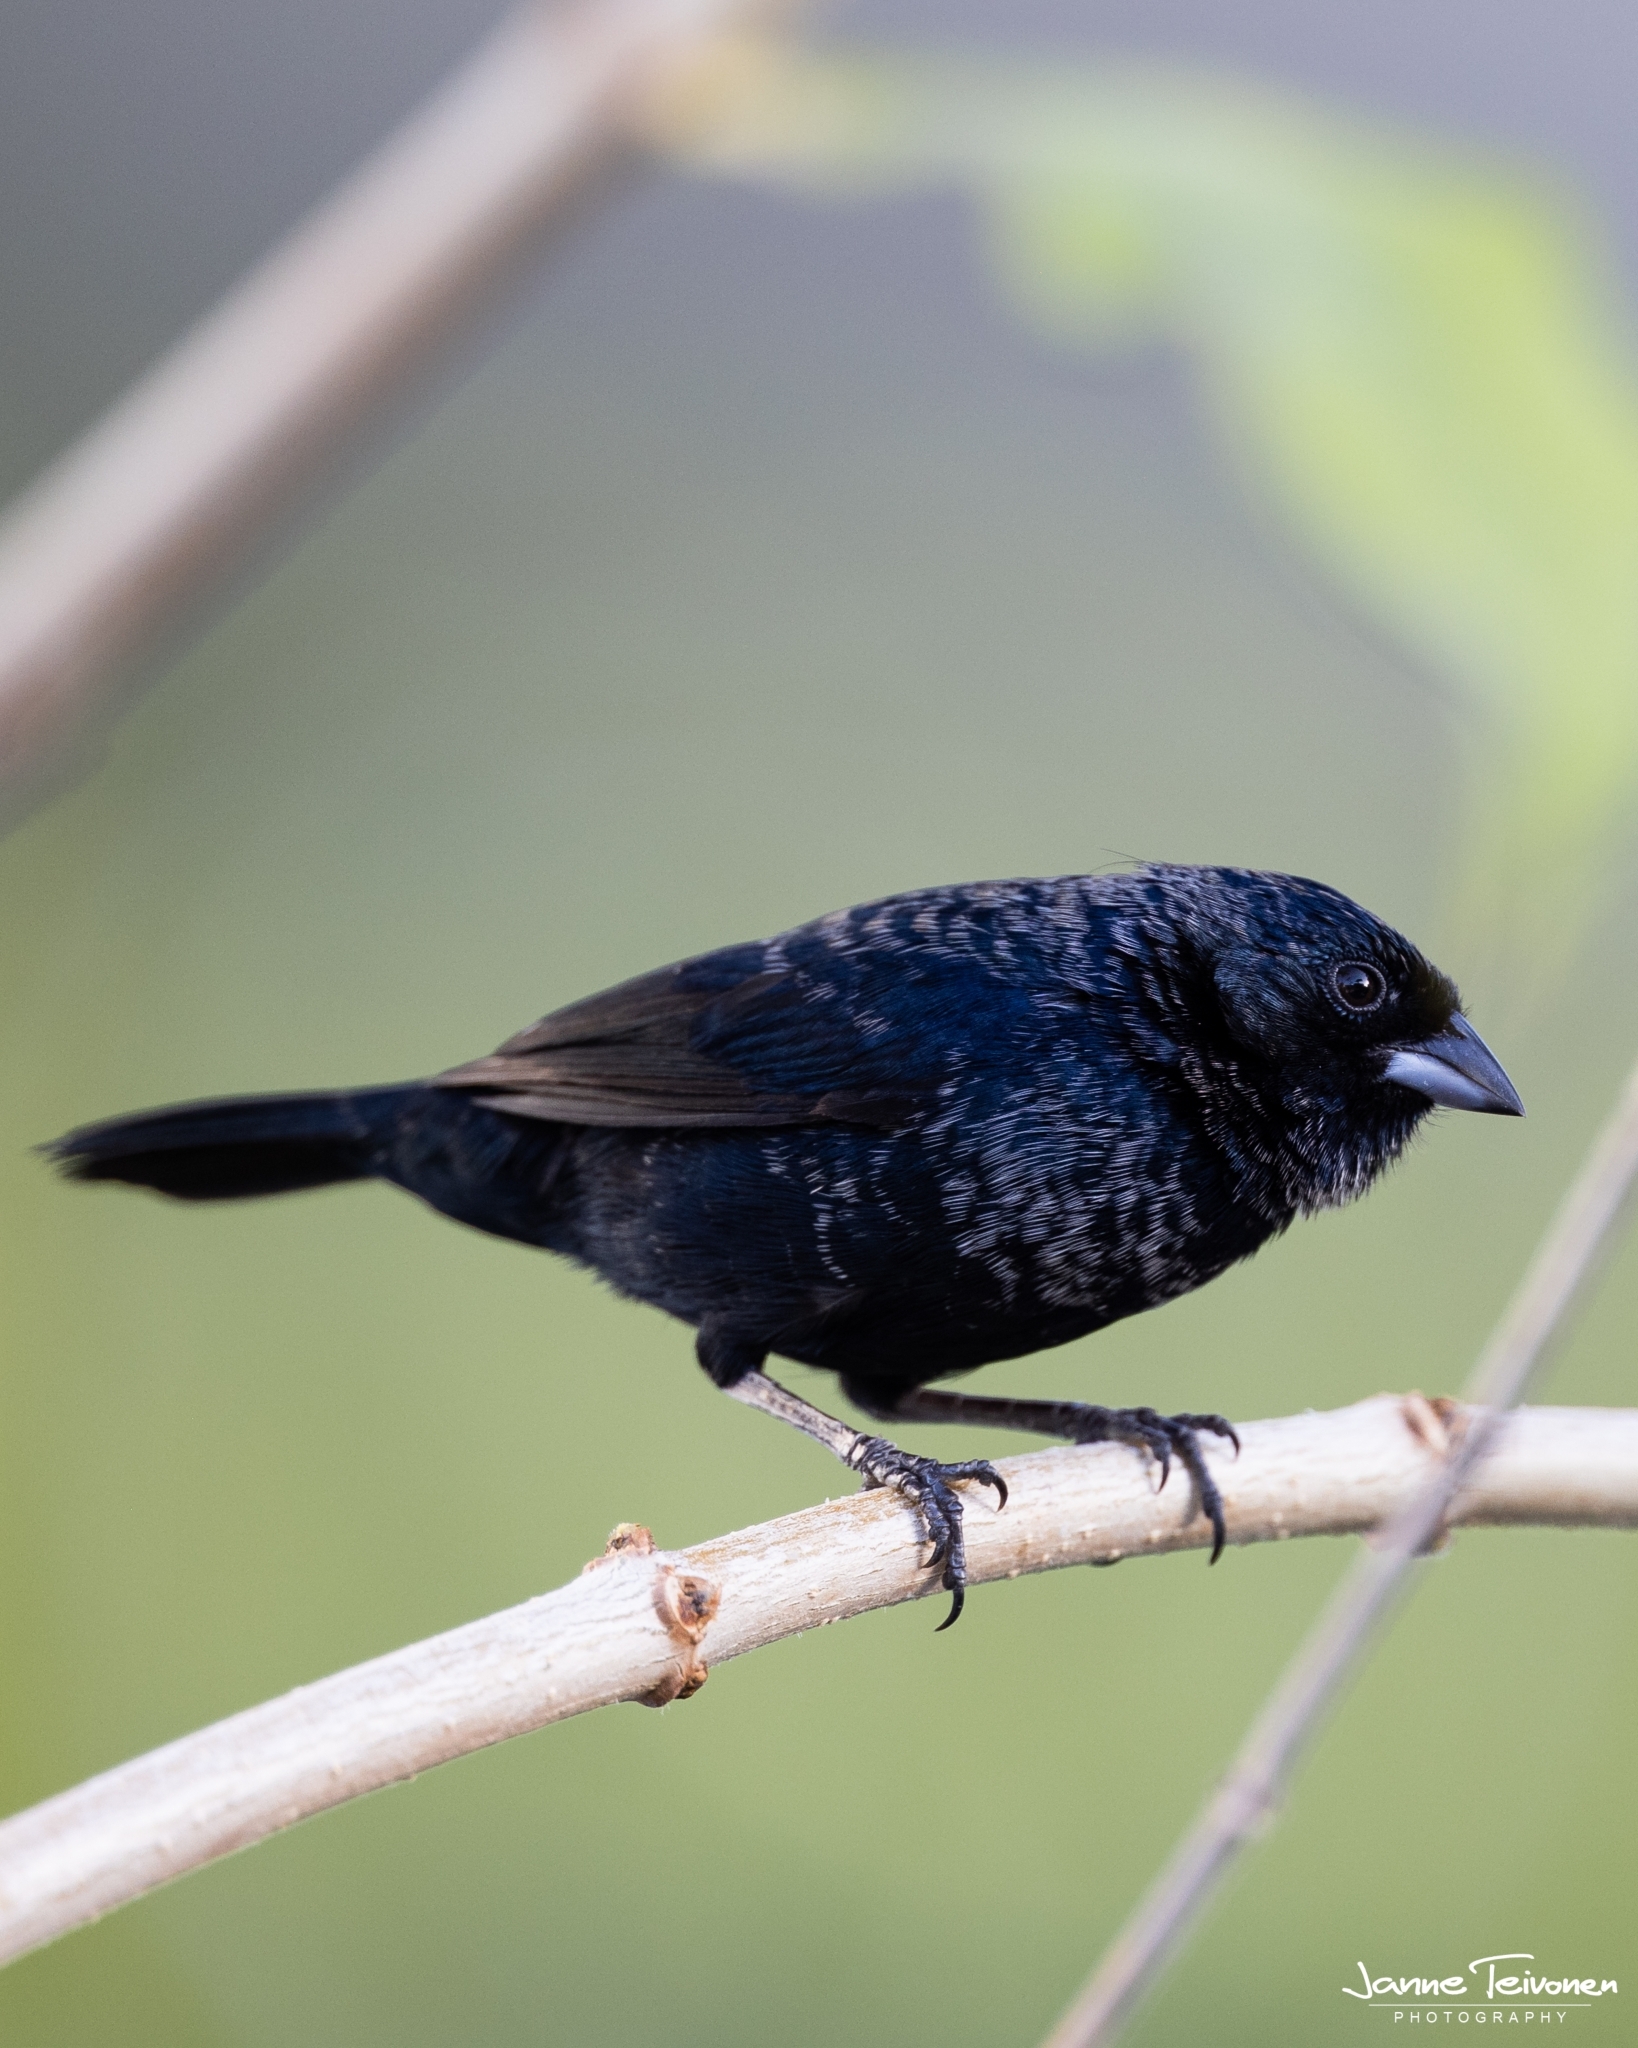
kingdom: Animalia
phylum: Chordata
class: Aves
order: Passeriformes
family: Thraupidae
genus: Volatinia
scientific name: Volatinia jacarina
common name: Blue-black grassquit
